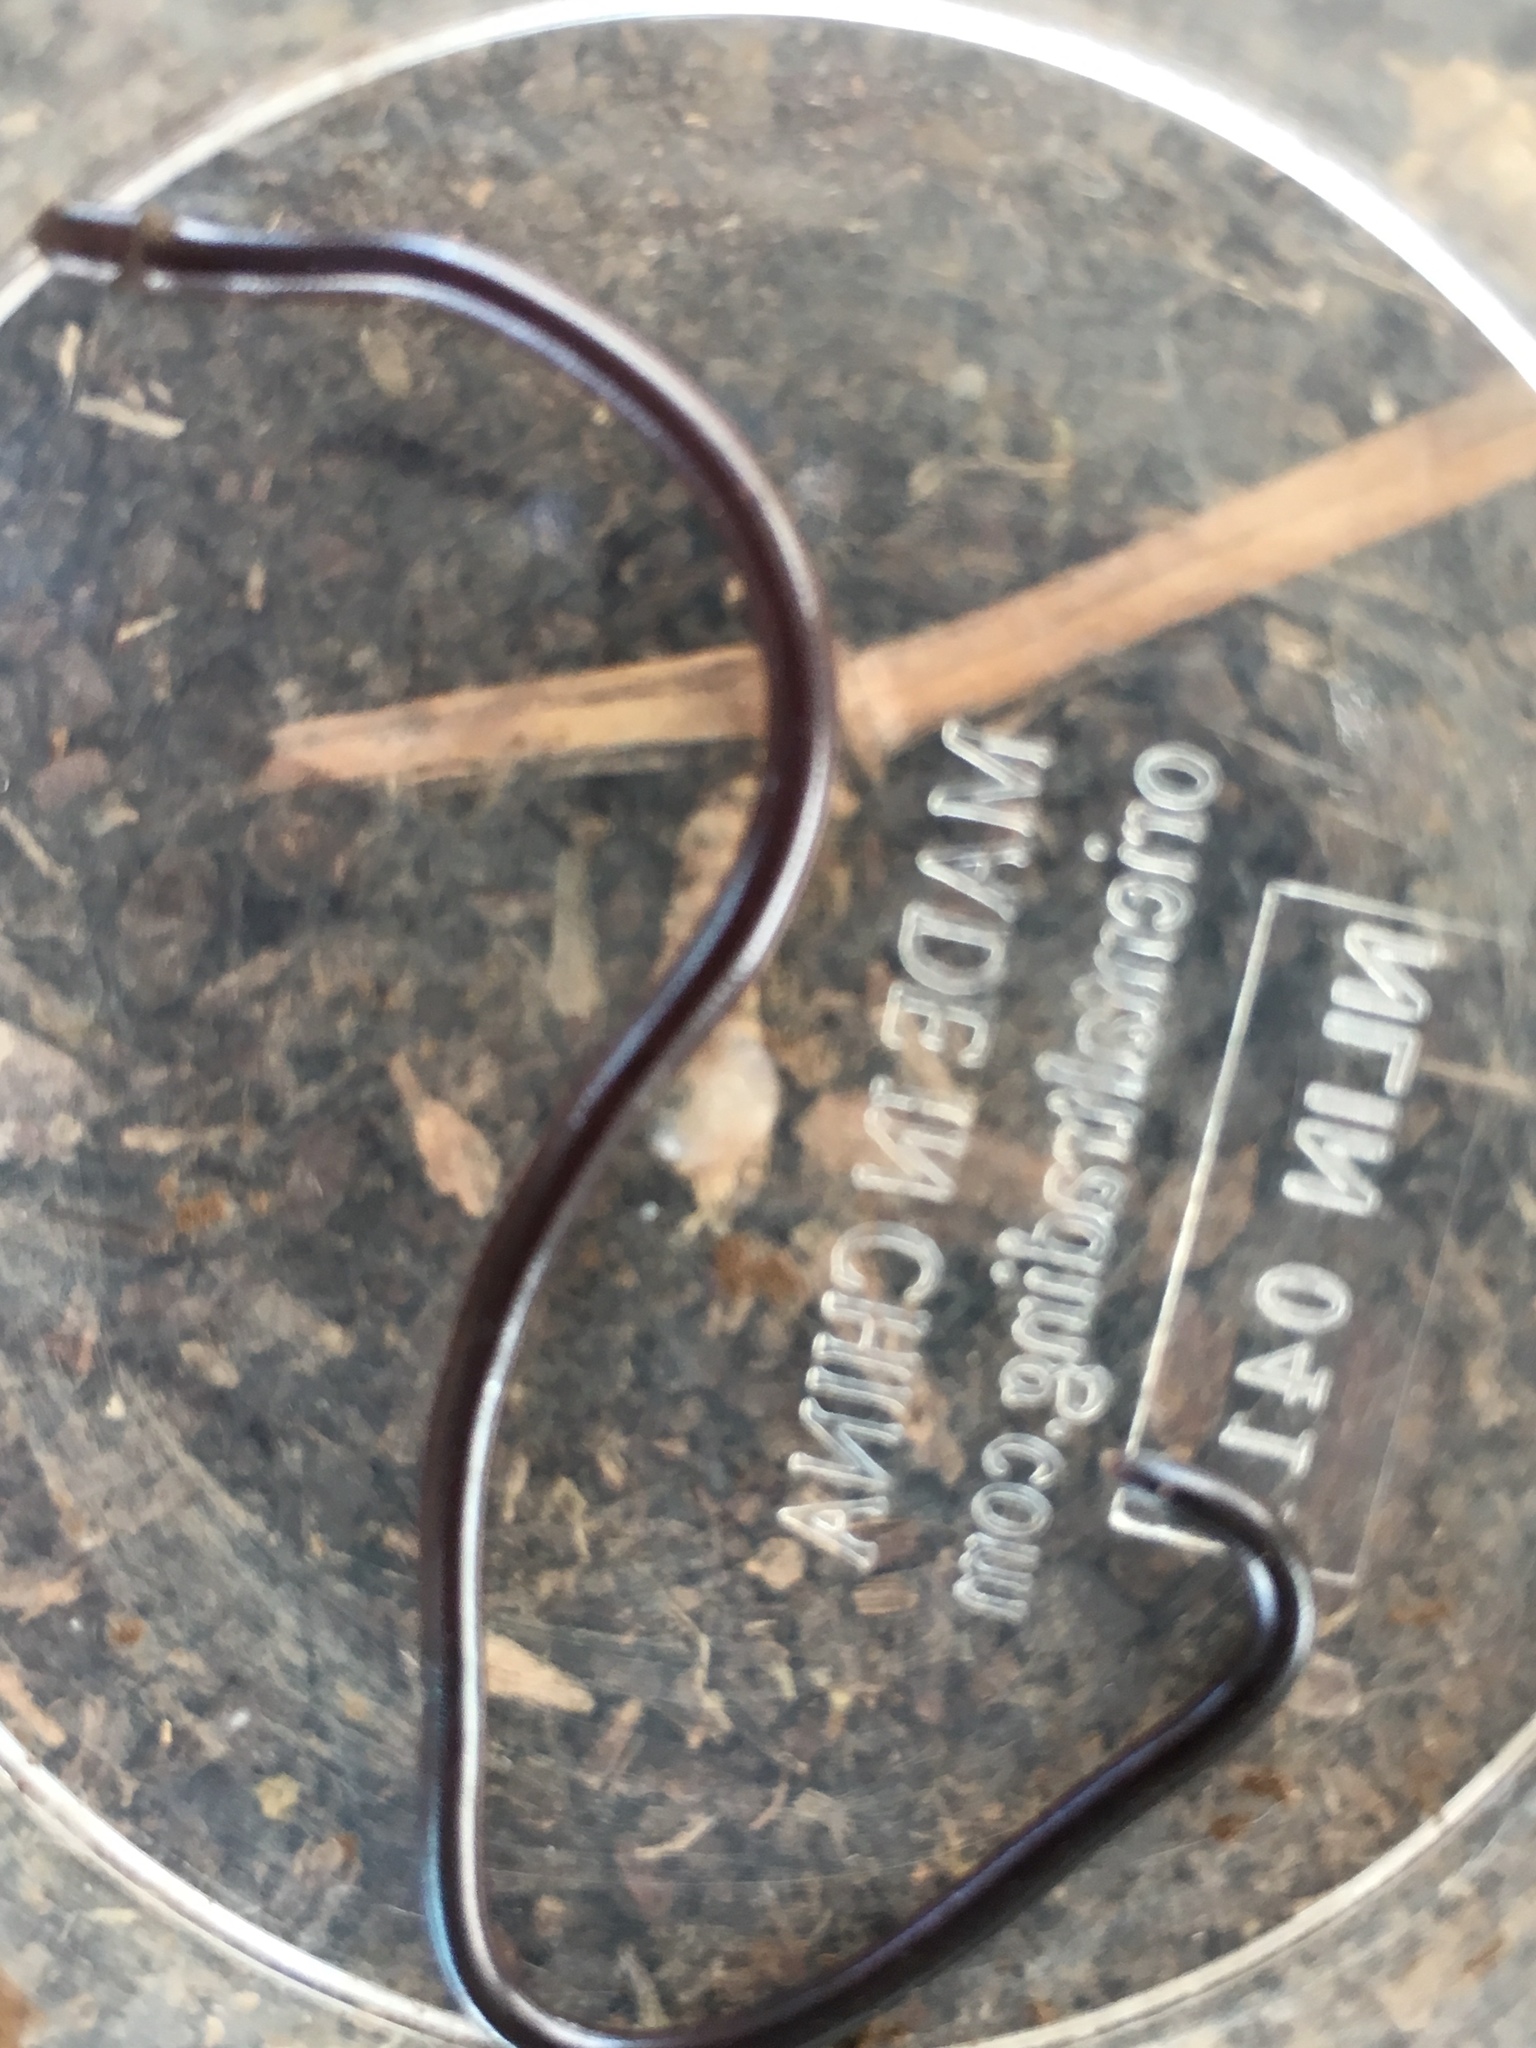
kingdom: Animalia
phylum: Chordata
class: Squamata
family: Typhlopidae
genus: Indotyphlops
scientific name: Indotyphlops braminus
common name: Brahminy blindsnake
